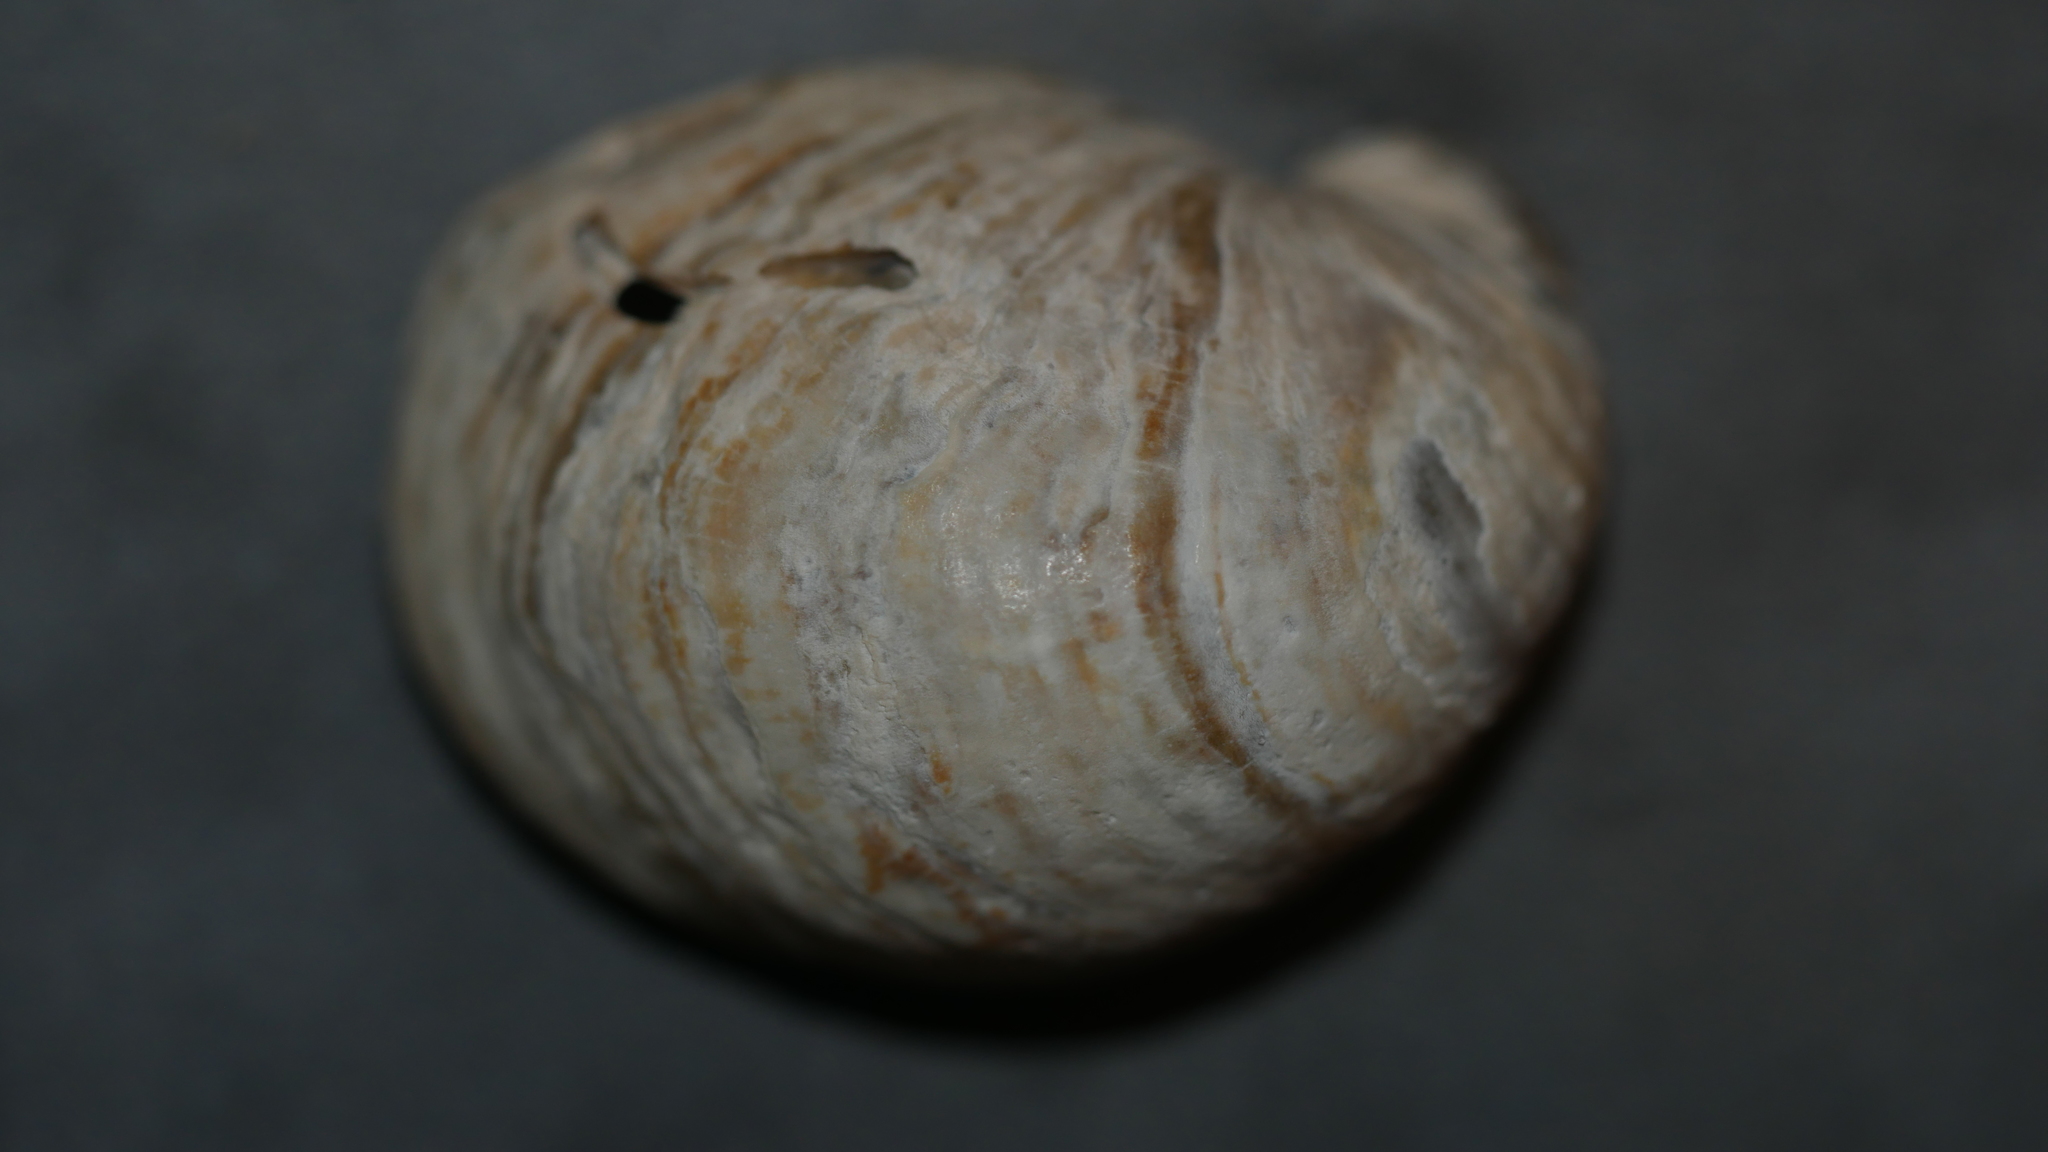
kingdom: Animalia
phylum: Mollusca
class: Gastropoda
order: Littorinimorpha
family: Calyptraeidae
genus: Crepidula
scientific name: Crepidula fornicata
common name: Slipper limpet
